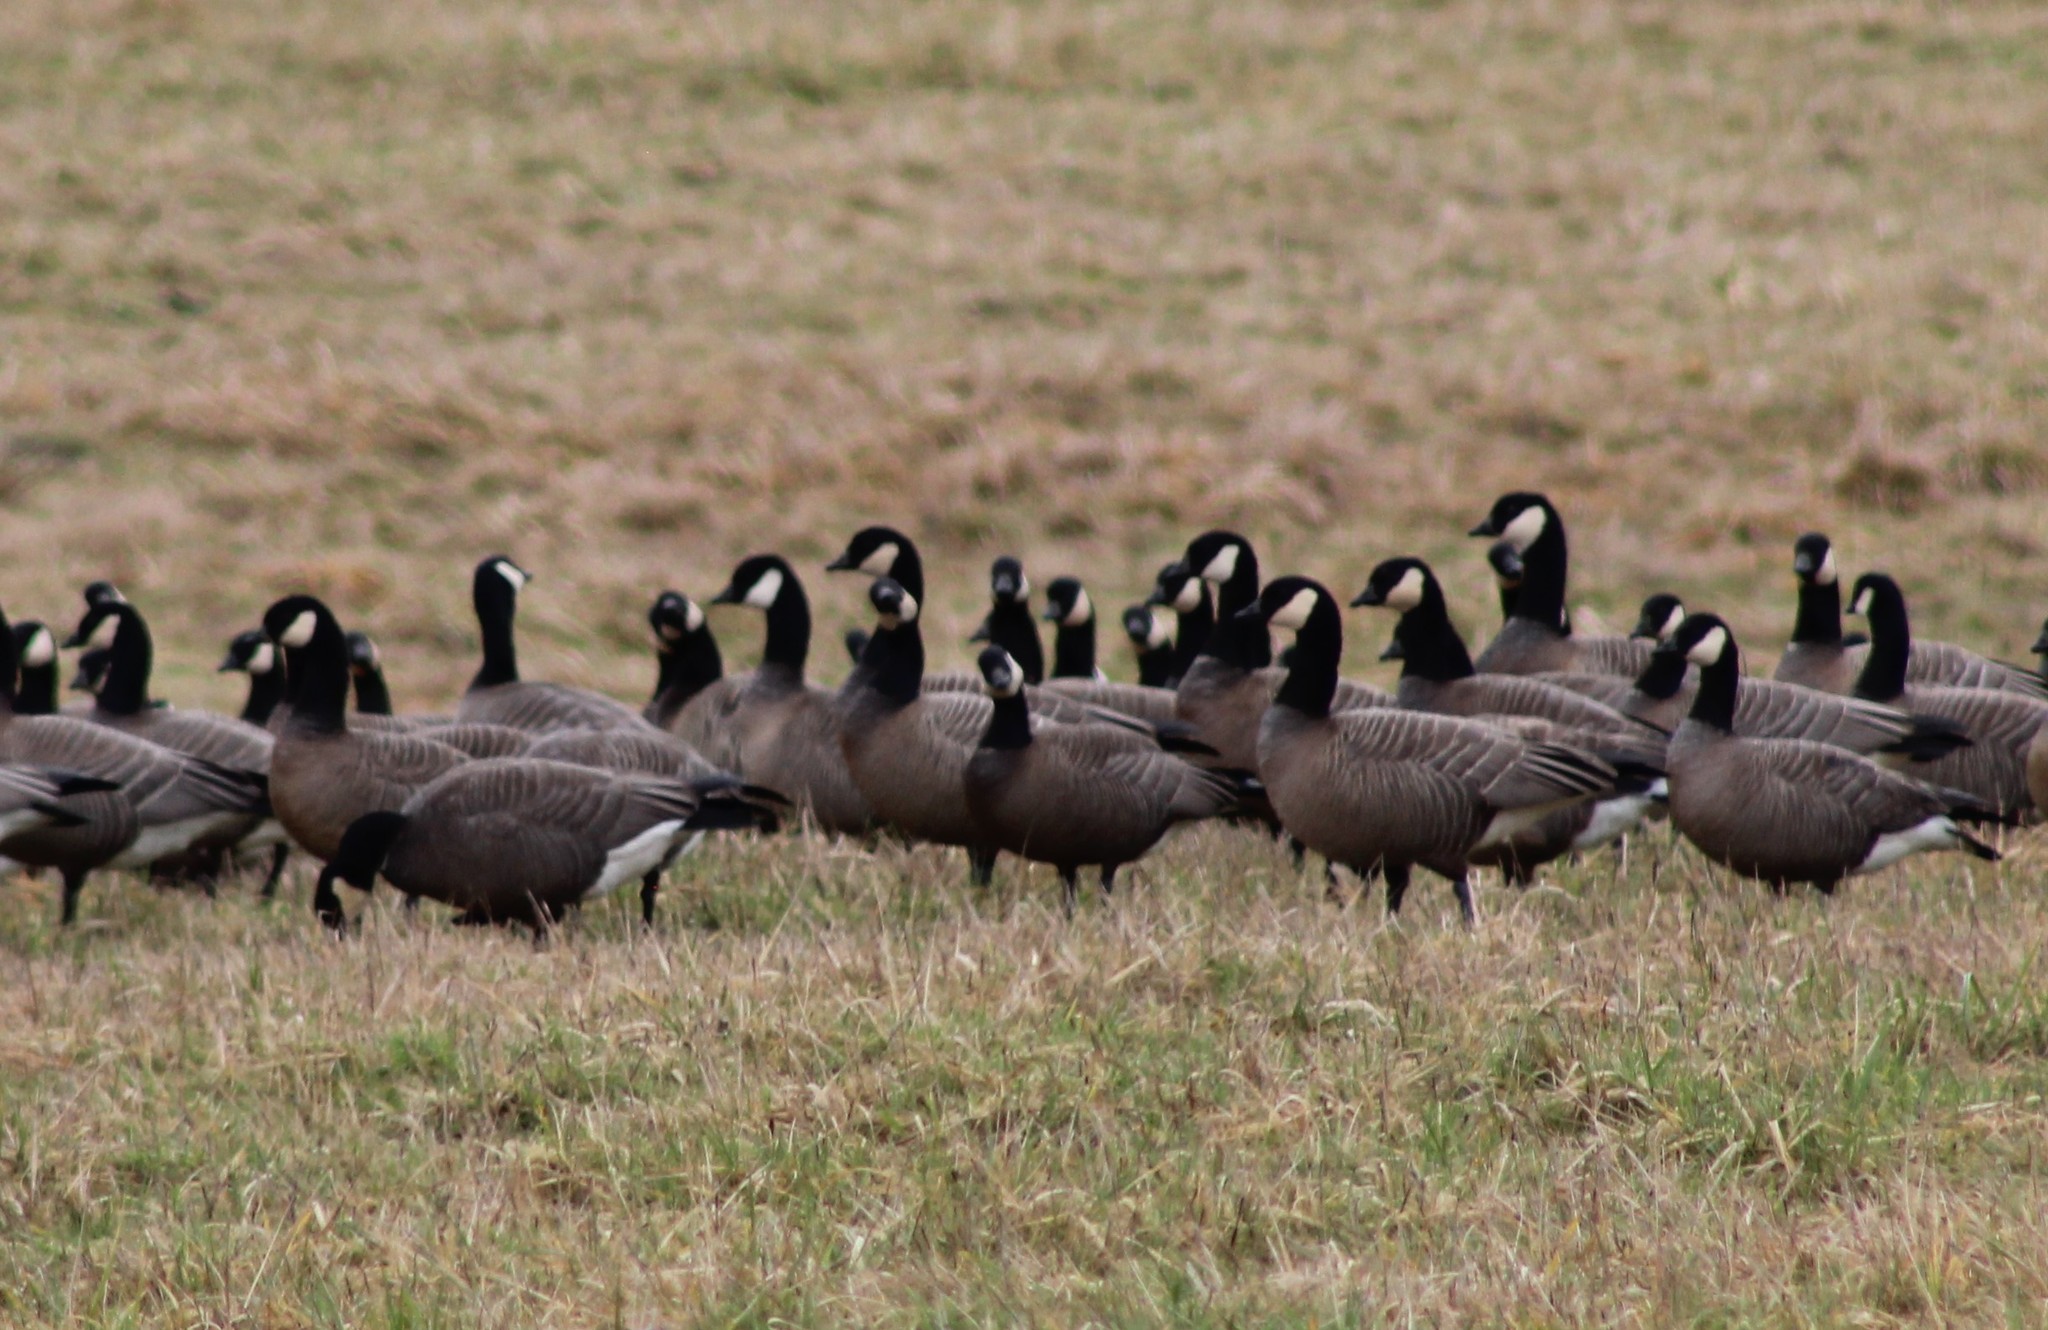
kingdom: Animalia
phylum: Chordata
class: Aves
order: Anseriformes
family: Anatidae
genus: Branta
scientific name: Branta hutchinsii
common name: Cackling goose
